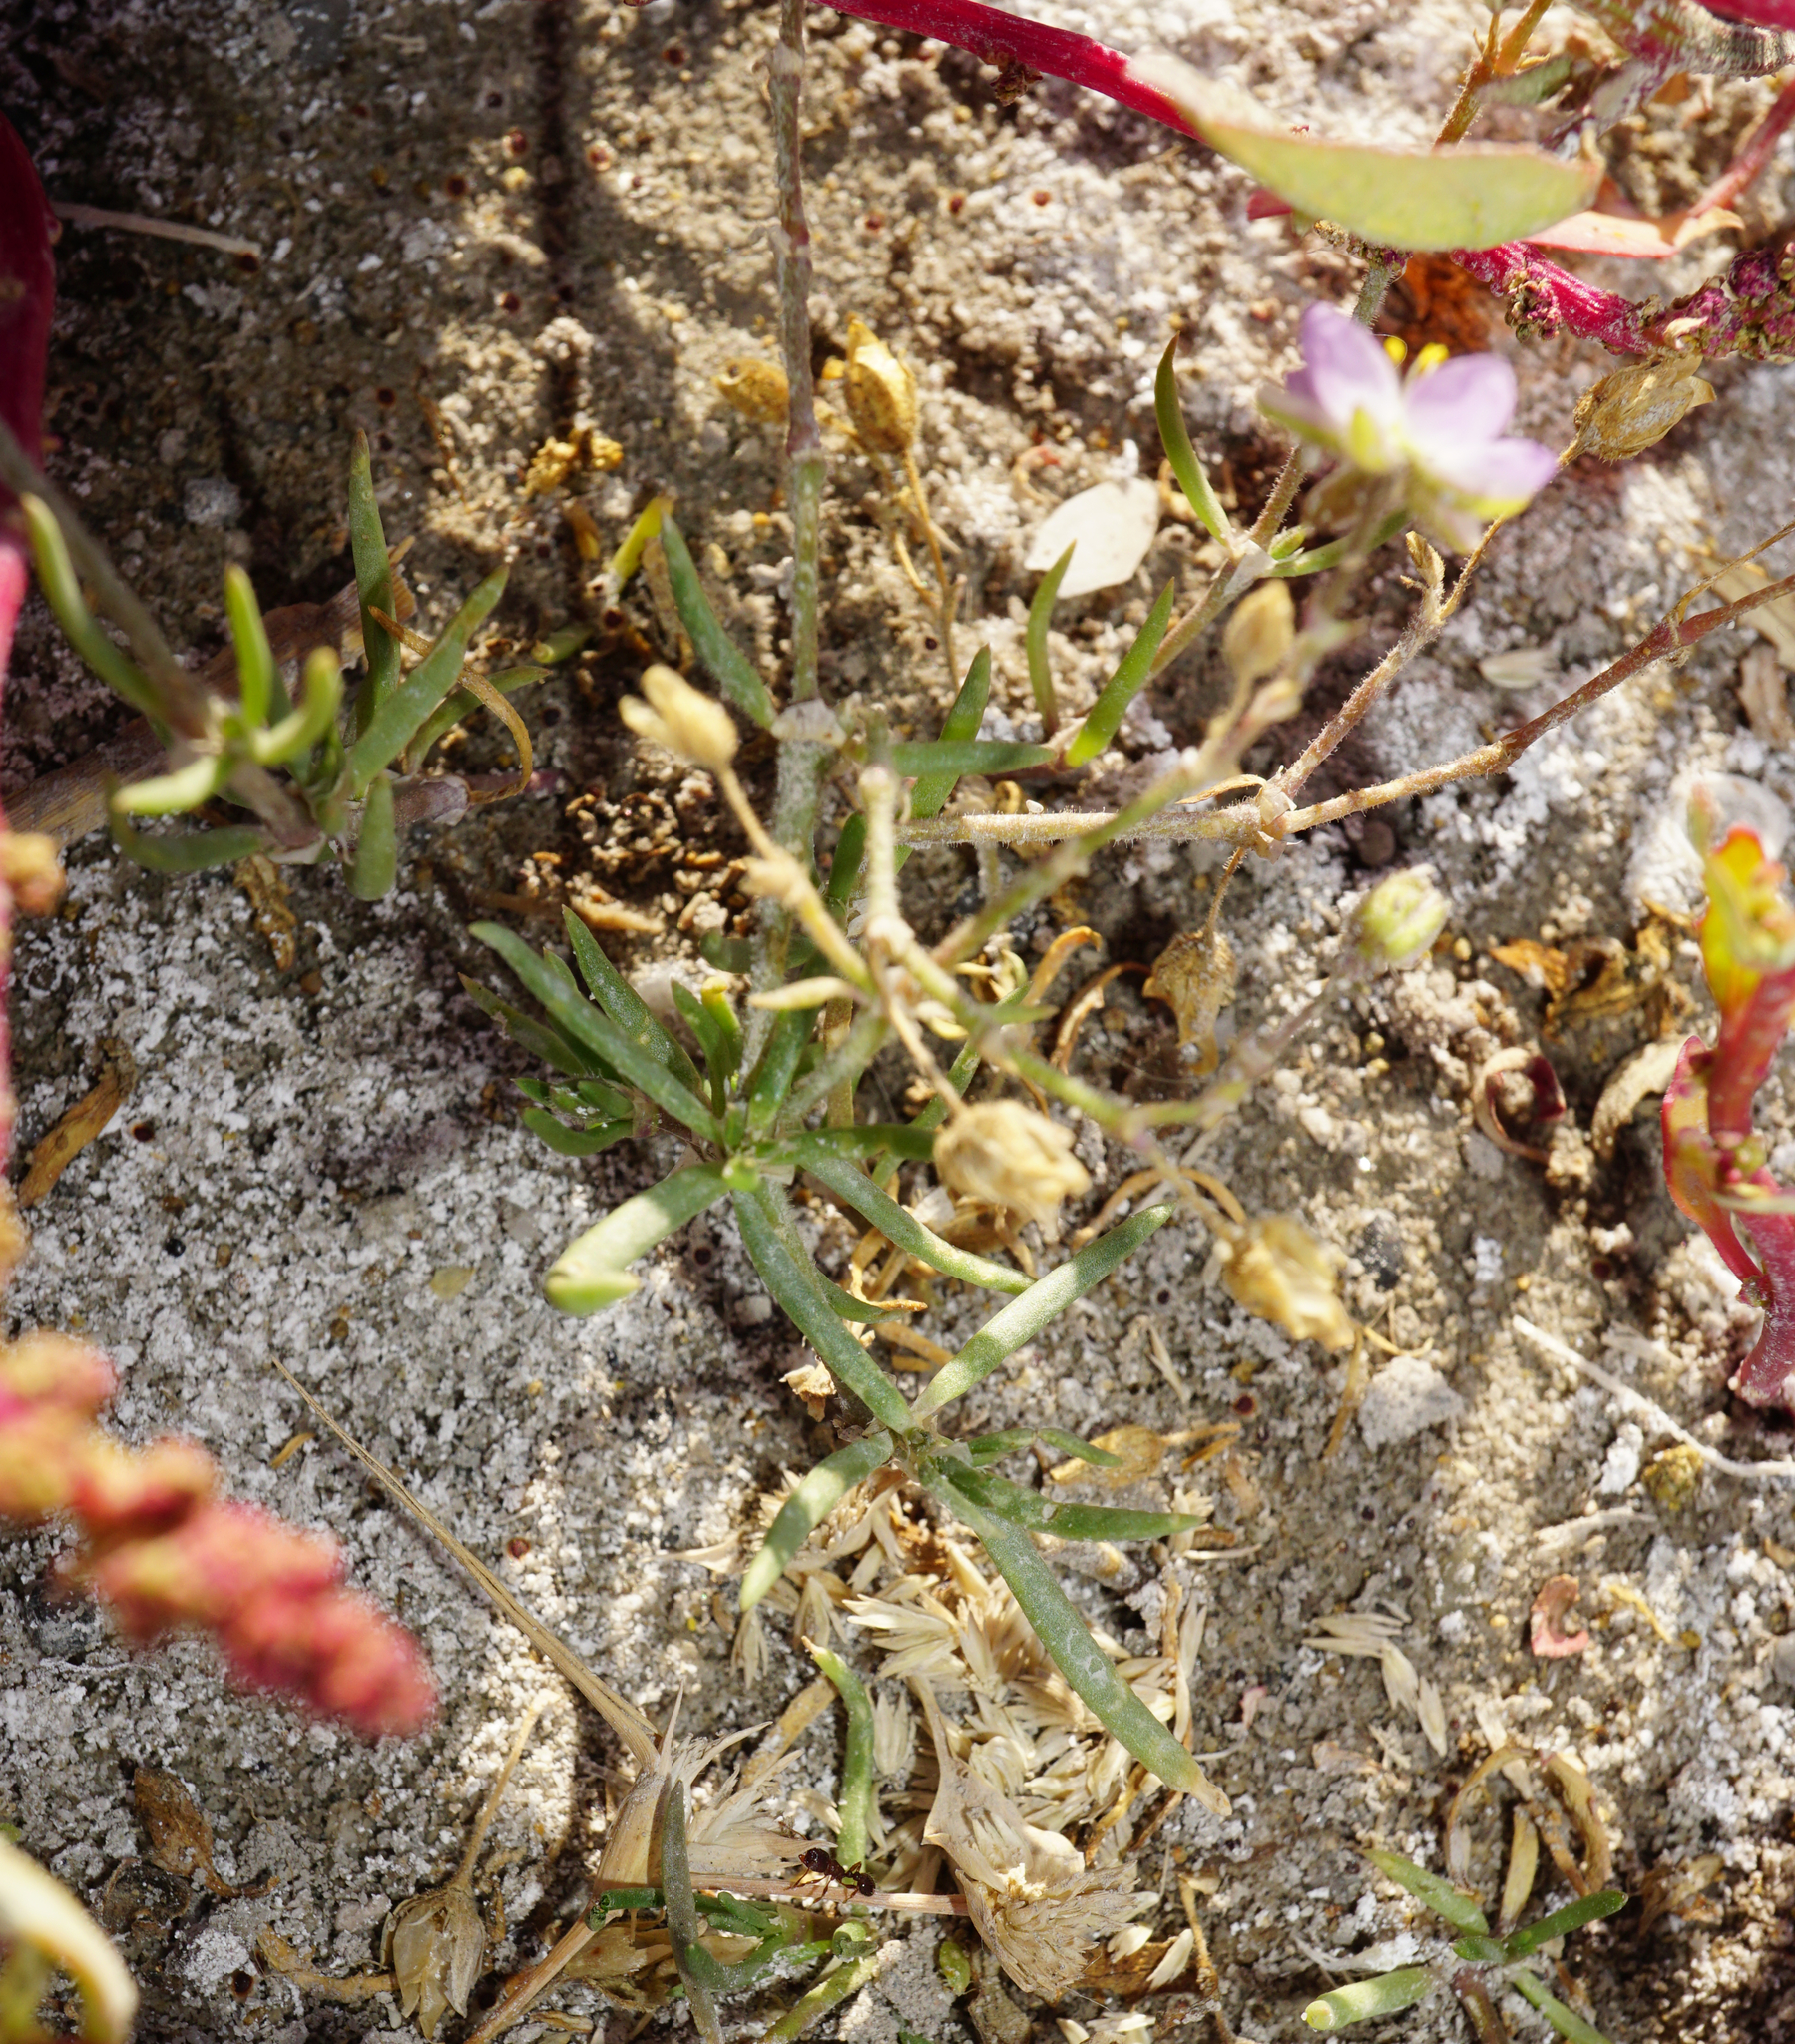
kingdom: Plantae
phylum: Tracheophyta
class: Magnoliopsida
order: Caryophyllales
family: Caryophyllaceae
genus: Spergularia
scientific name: Spergularia media
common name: Greater sea-spurrey
